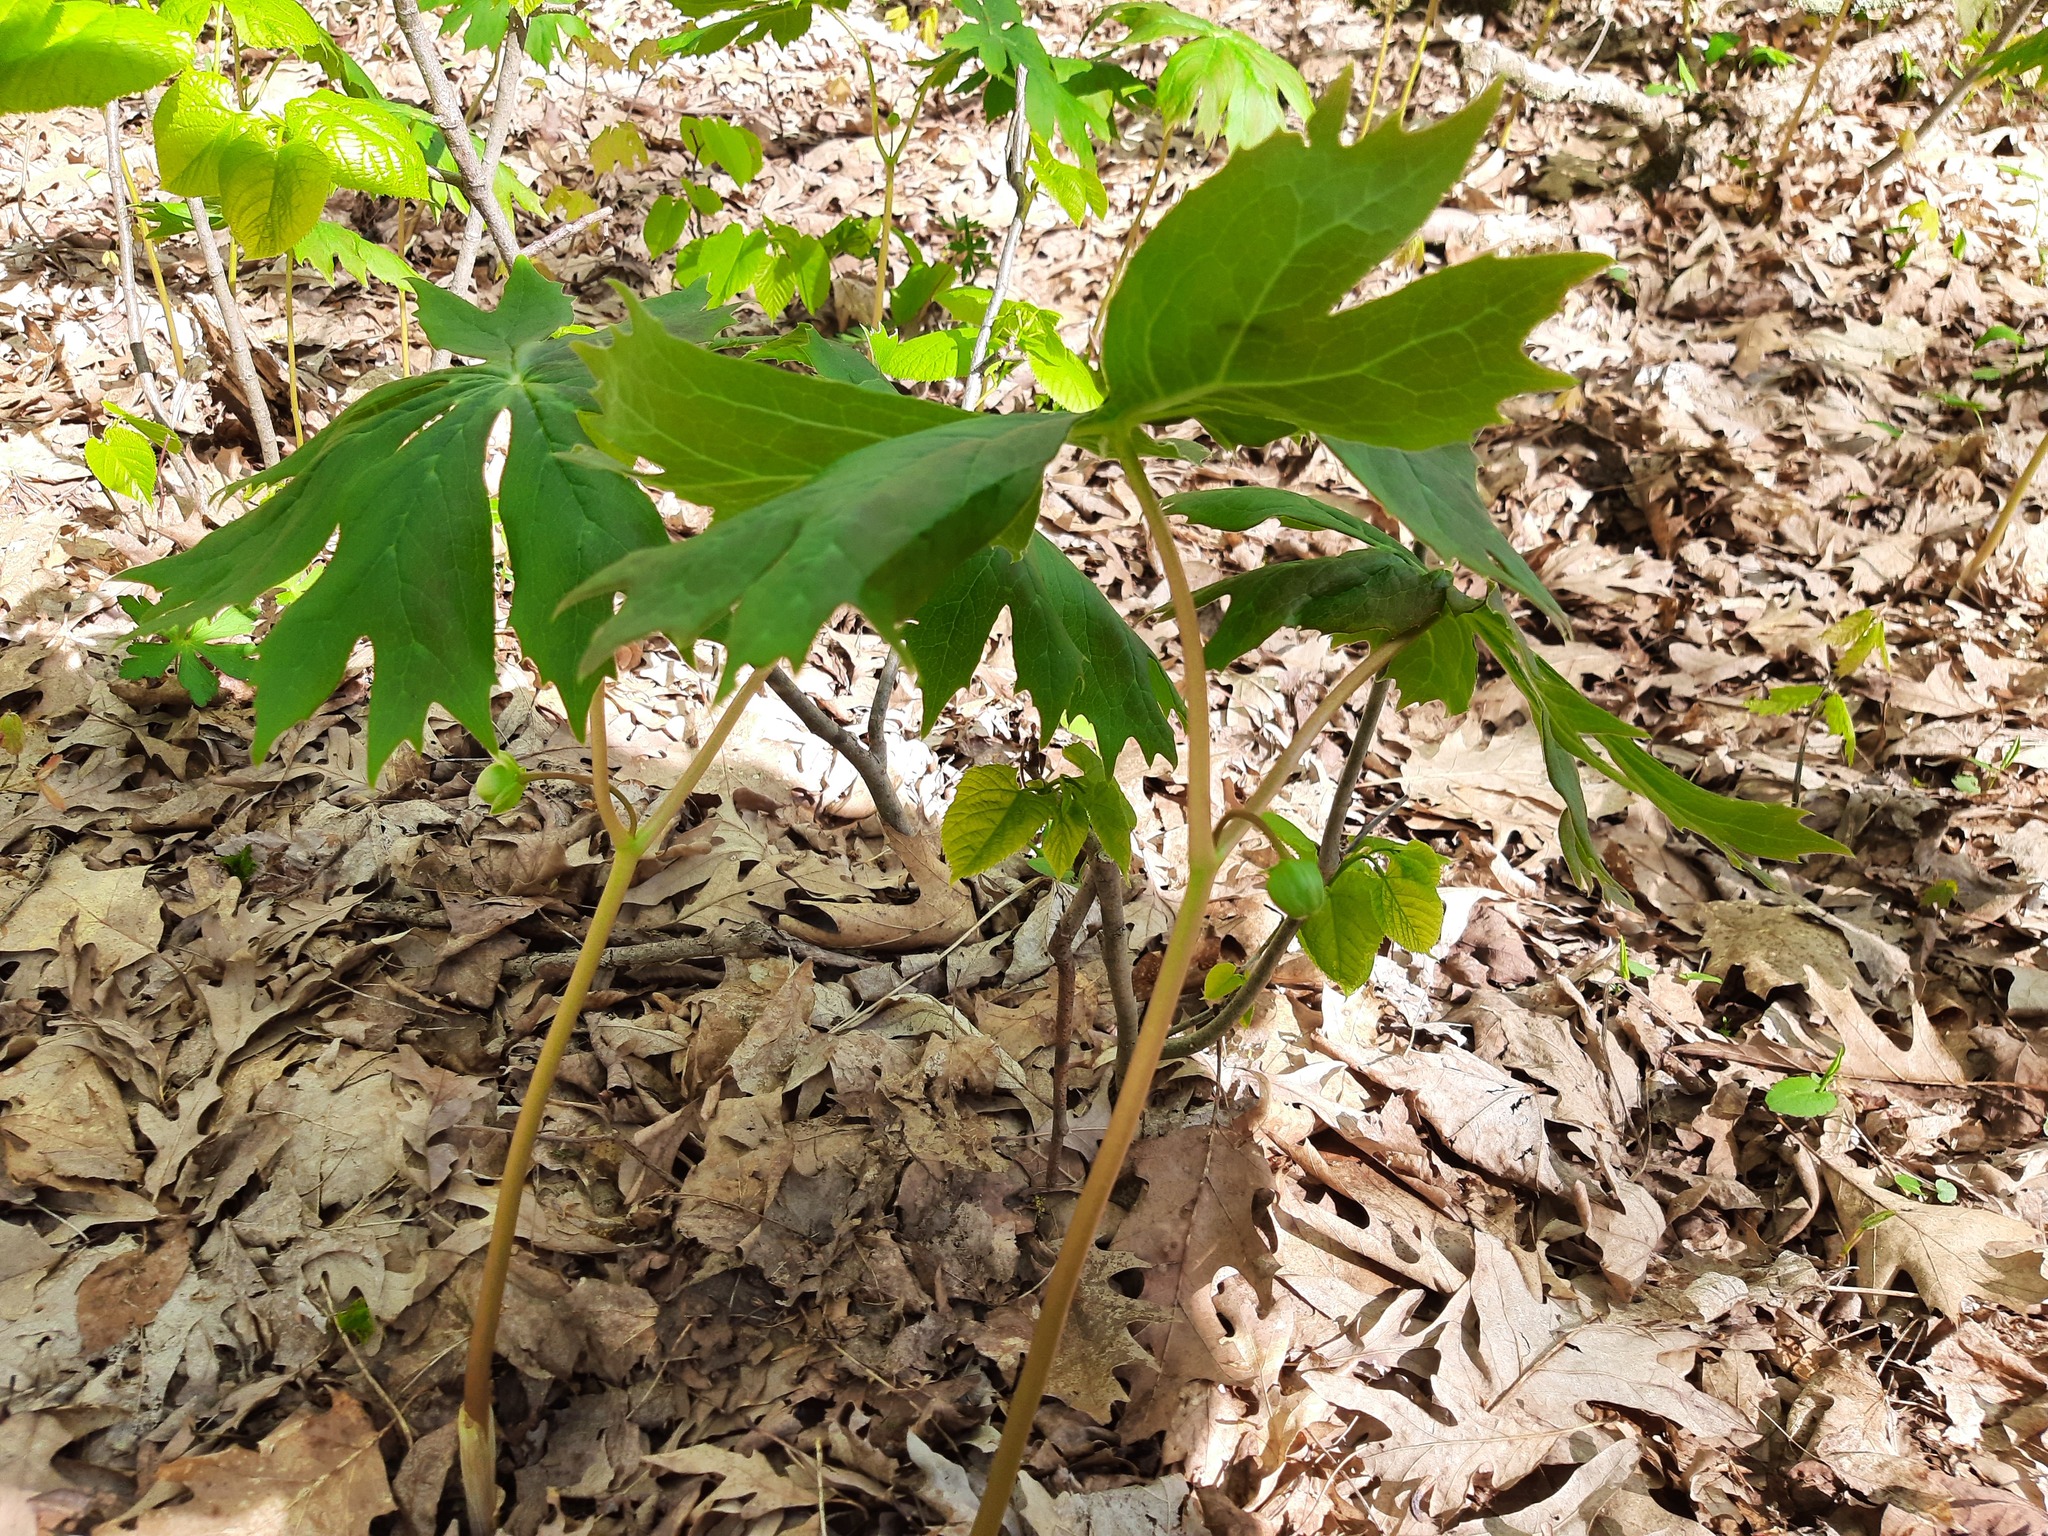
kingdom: Plantae
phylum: Tracheophyta
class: Magnoliopsida
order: Ranunculales
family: Berberidaceae
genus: Podophyllum
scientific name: Podophyllum peltatum
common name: Wild mandrake
